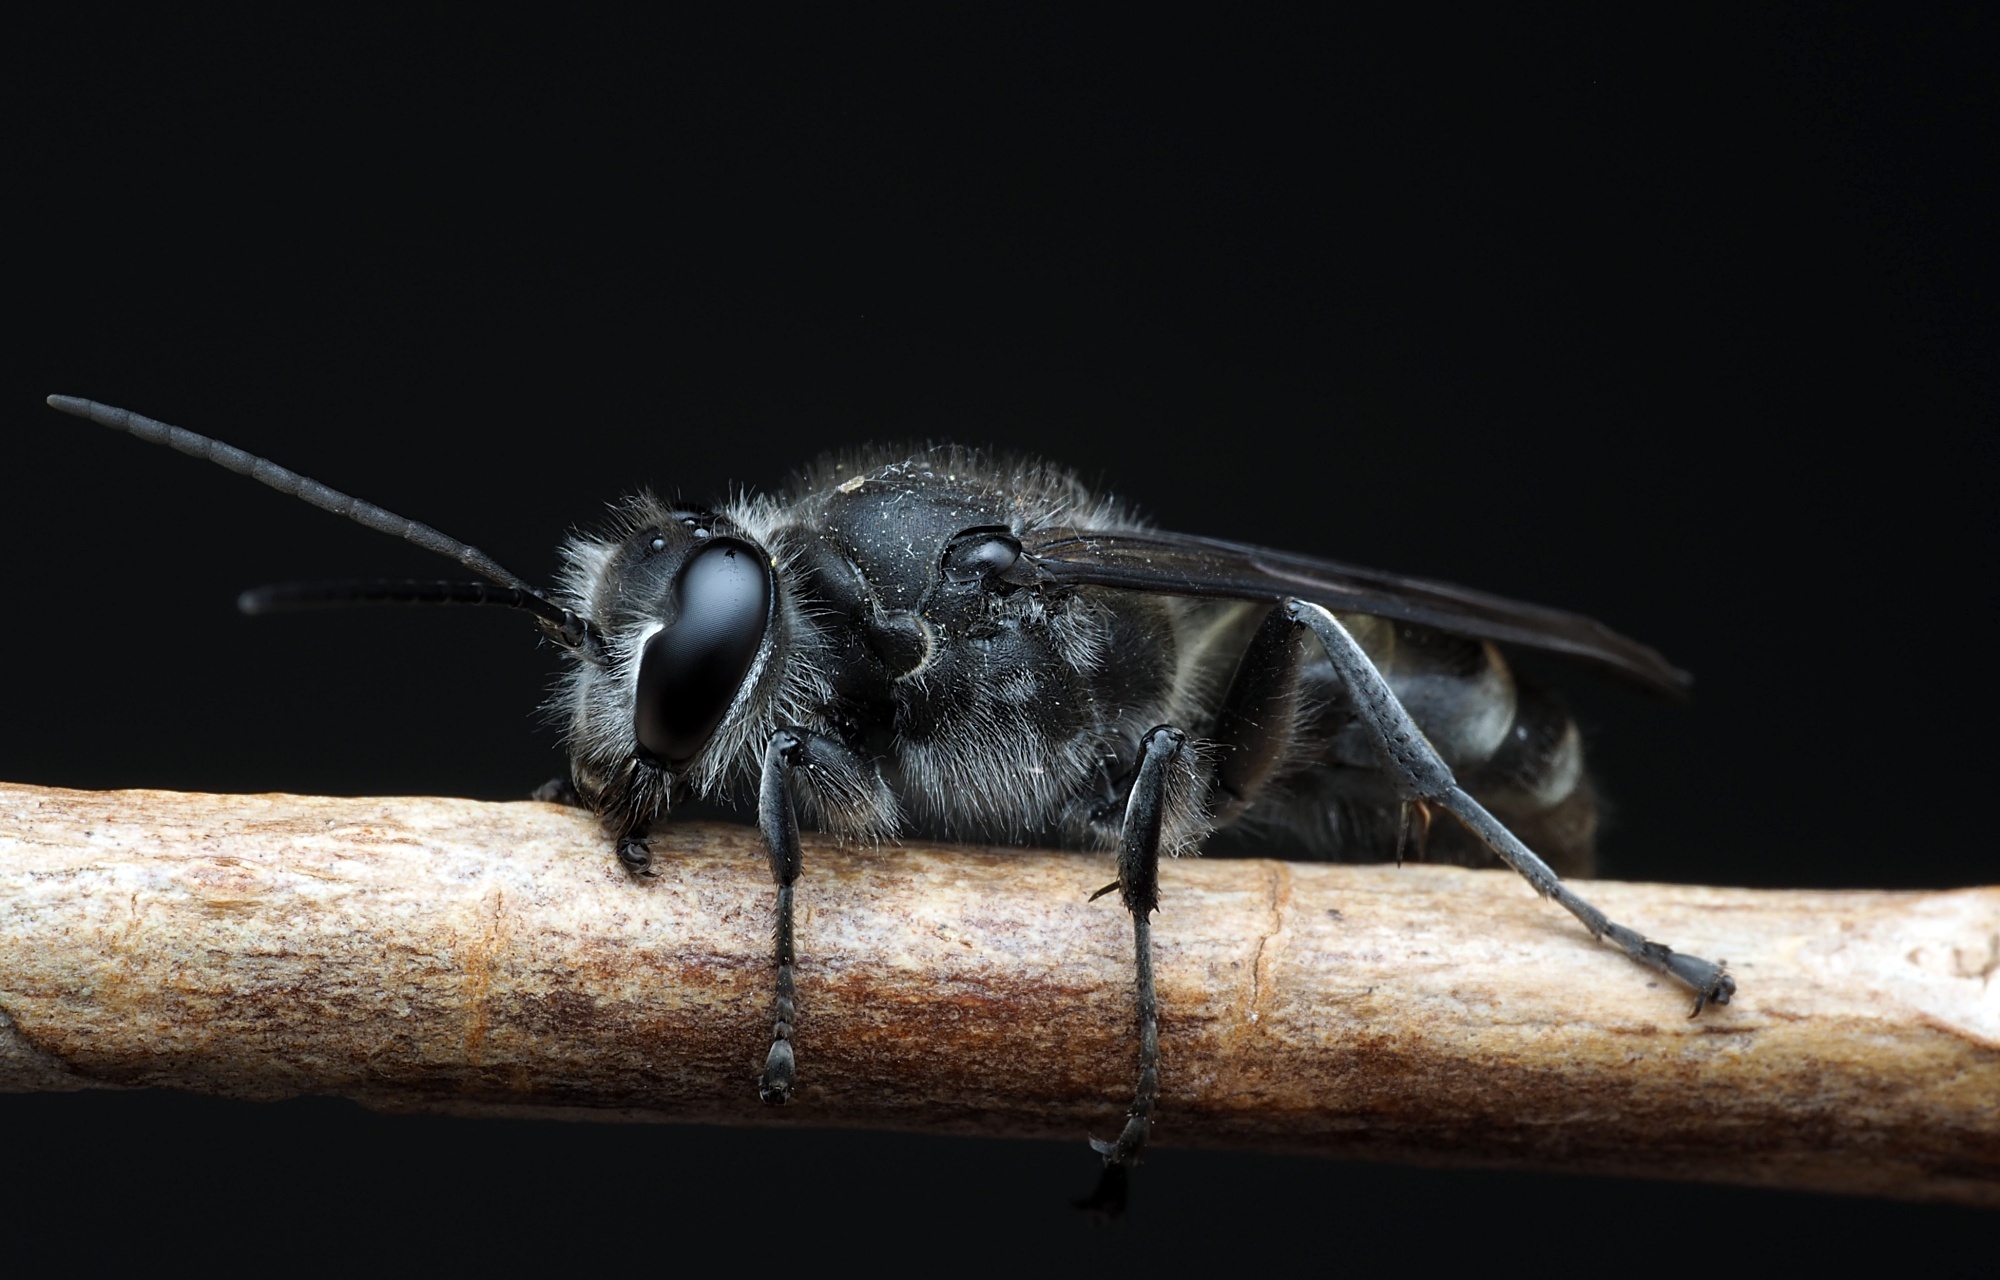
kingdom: Animalia
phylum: Arthropoda
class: Insecta
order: Hymenoptera
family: Crabronidae
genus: Pison
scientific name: Pison spinolae
